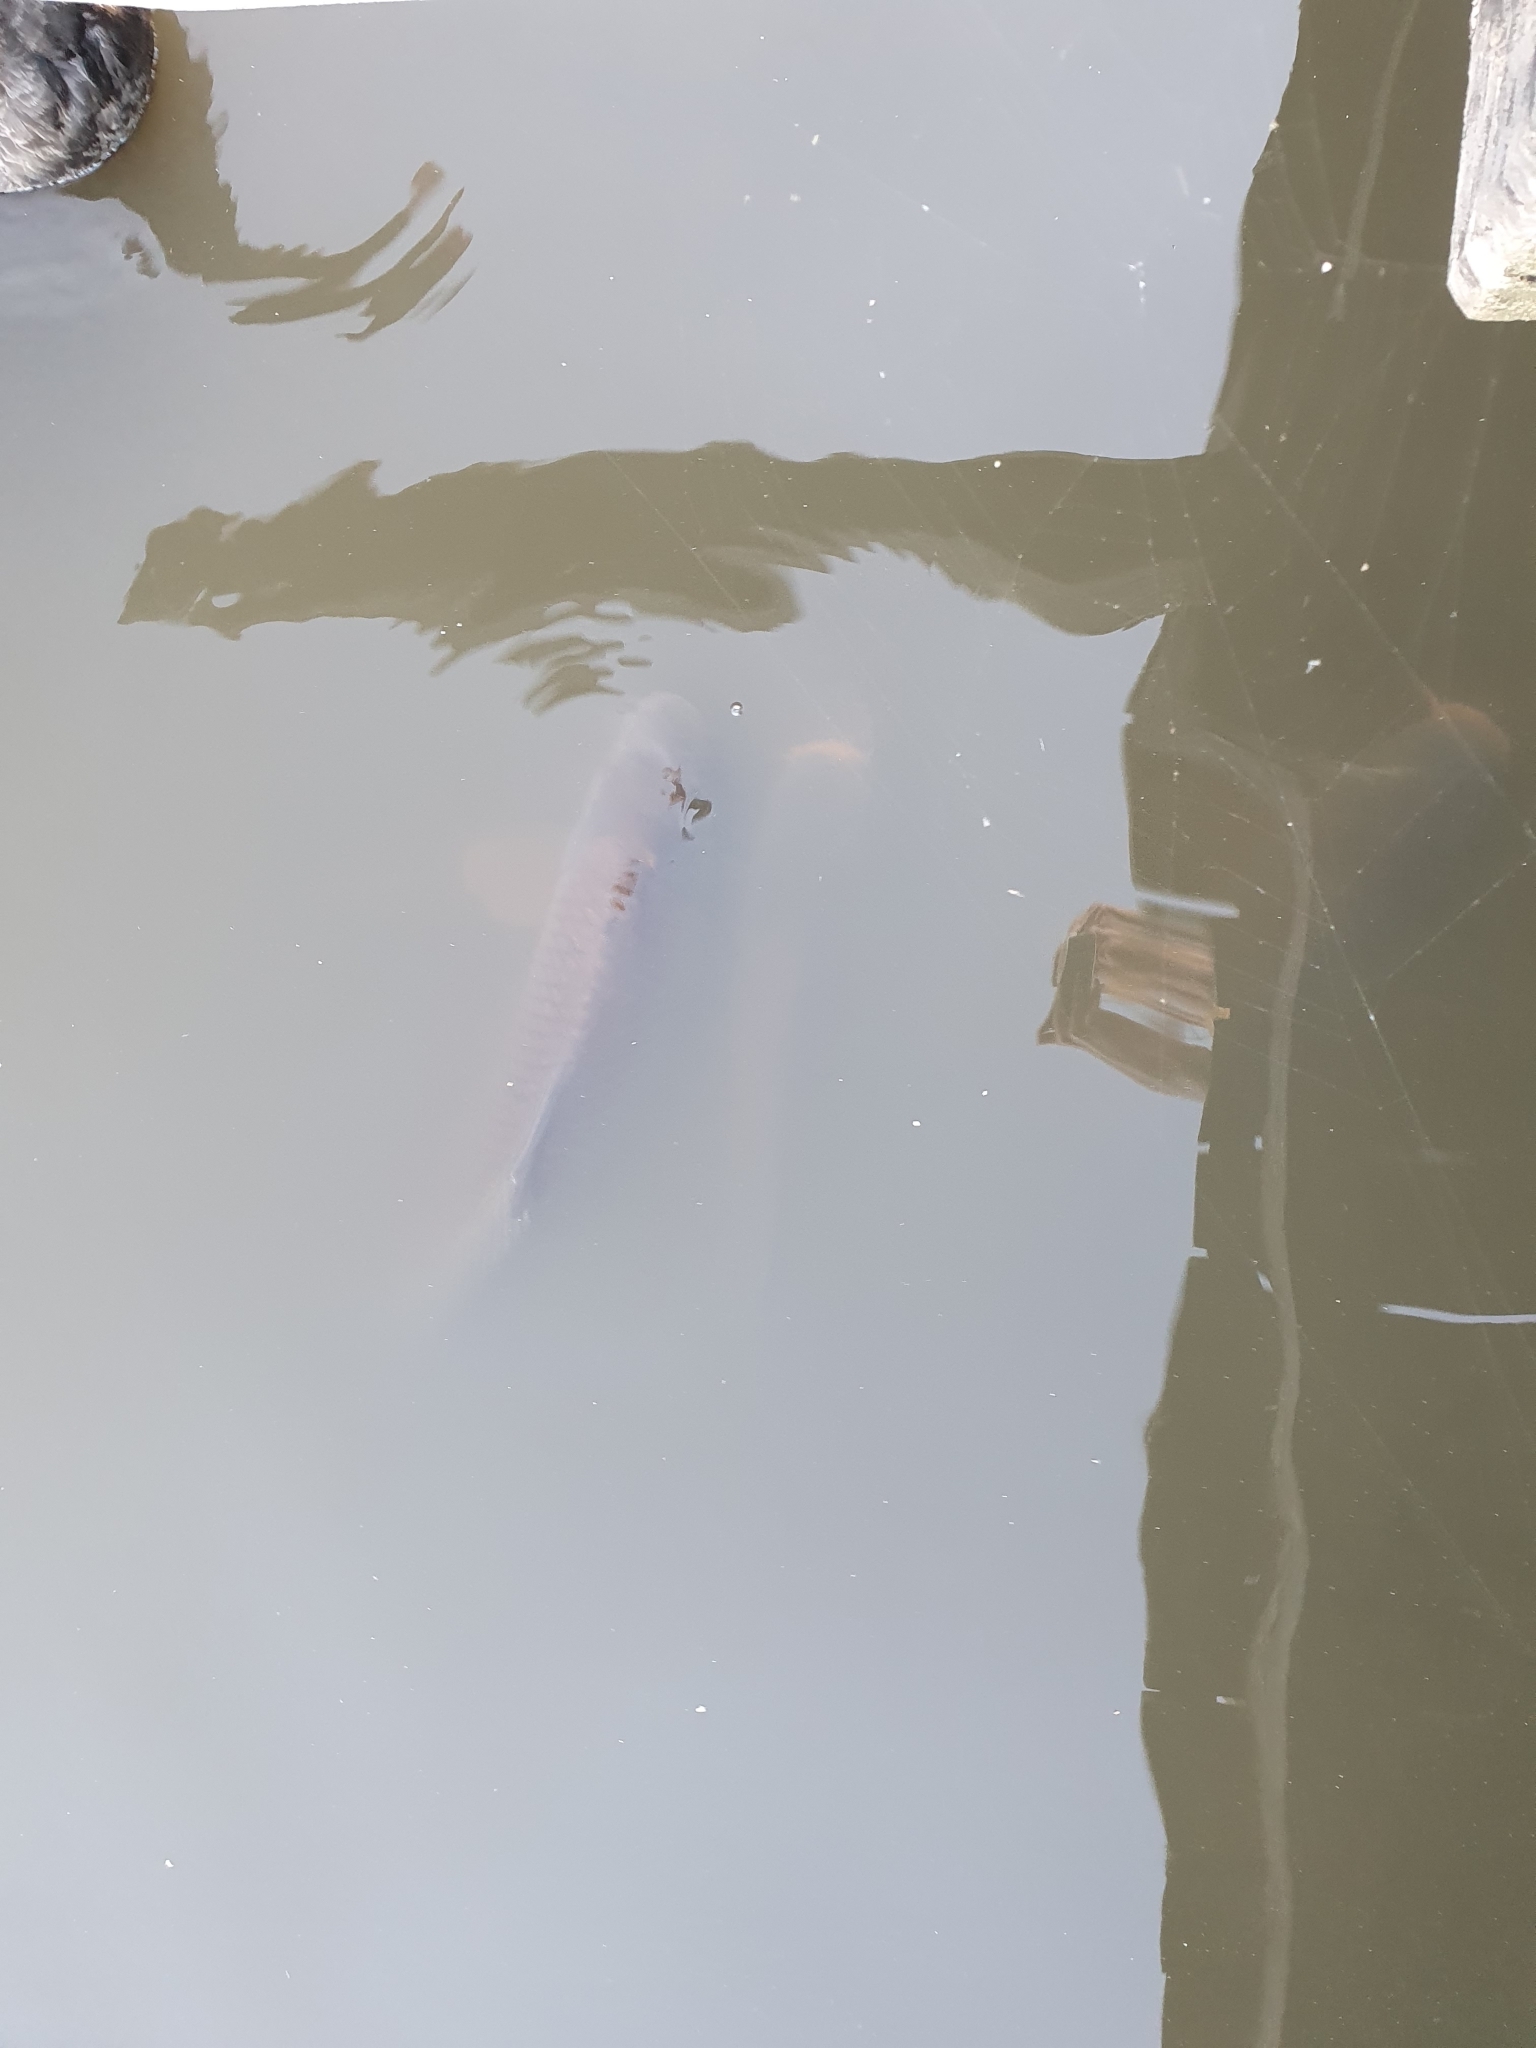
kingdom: Animalia
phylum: Chordata
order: Cypriniformes
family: Cyprinidae
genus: Cyprinus
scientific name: Cyprinus carpio
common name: Common carp
